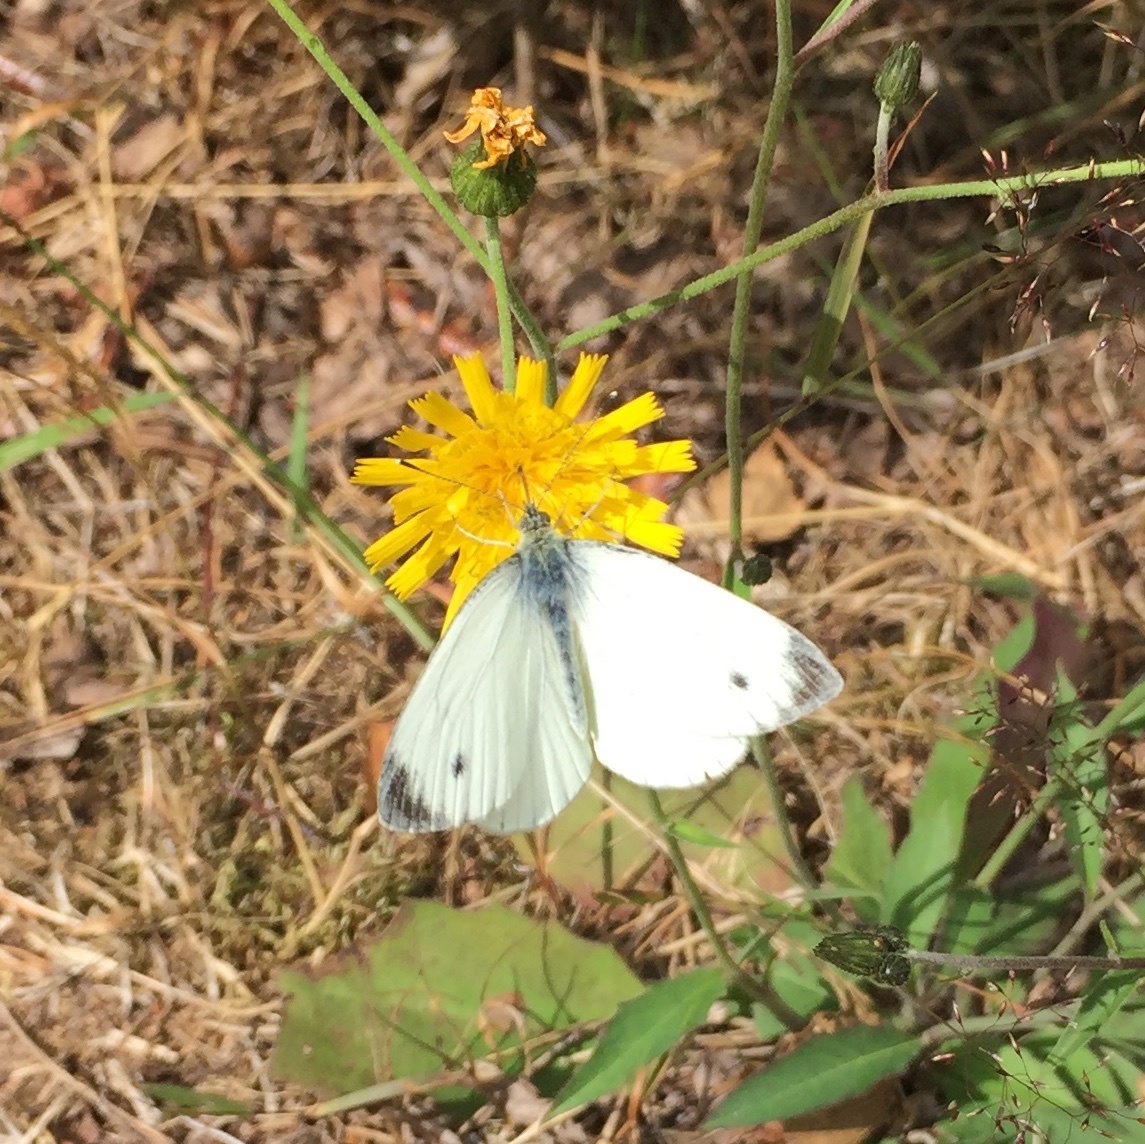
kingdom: Animalia
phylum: Arthropoda
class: Insecta
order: Lepidoptera
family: Pieridae
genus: Pieris
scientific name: Pieris napi
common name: Green-veined white
